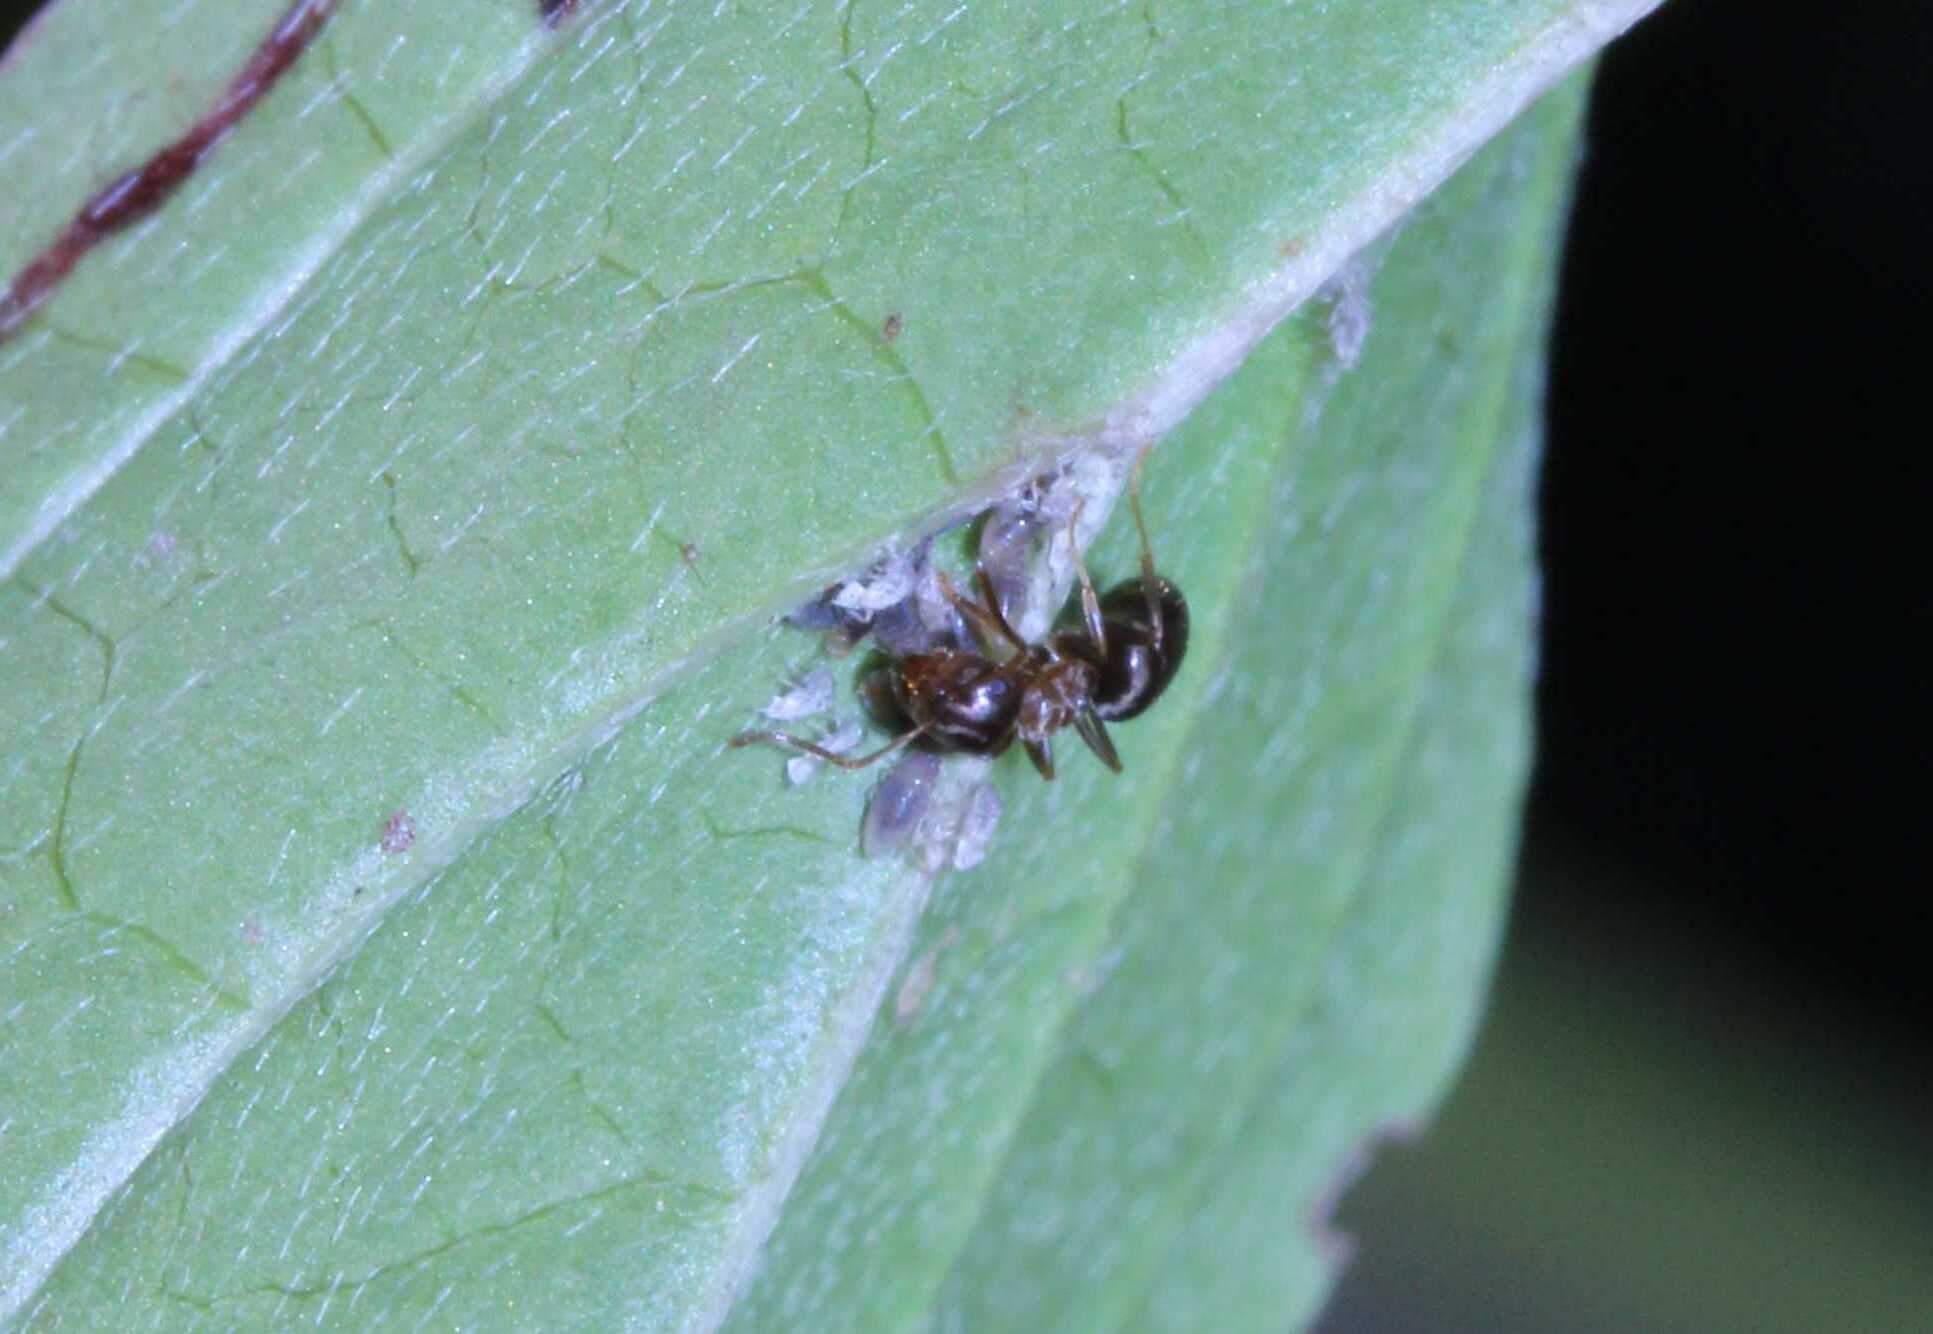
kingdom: Animalia
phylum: Arthropoda
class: Insecta
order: Hymenoptera
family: Formicidae
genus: Lasius
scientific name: Lasius
